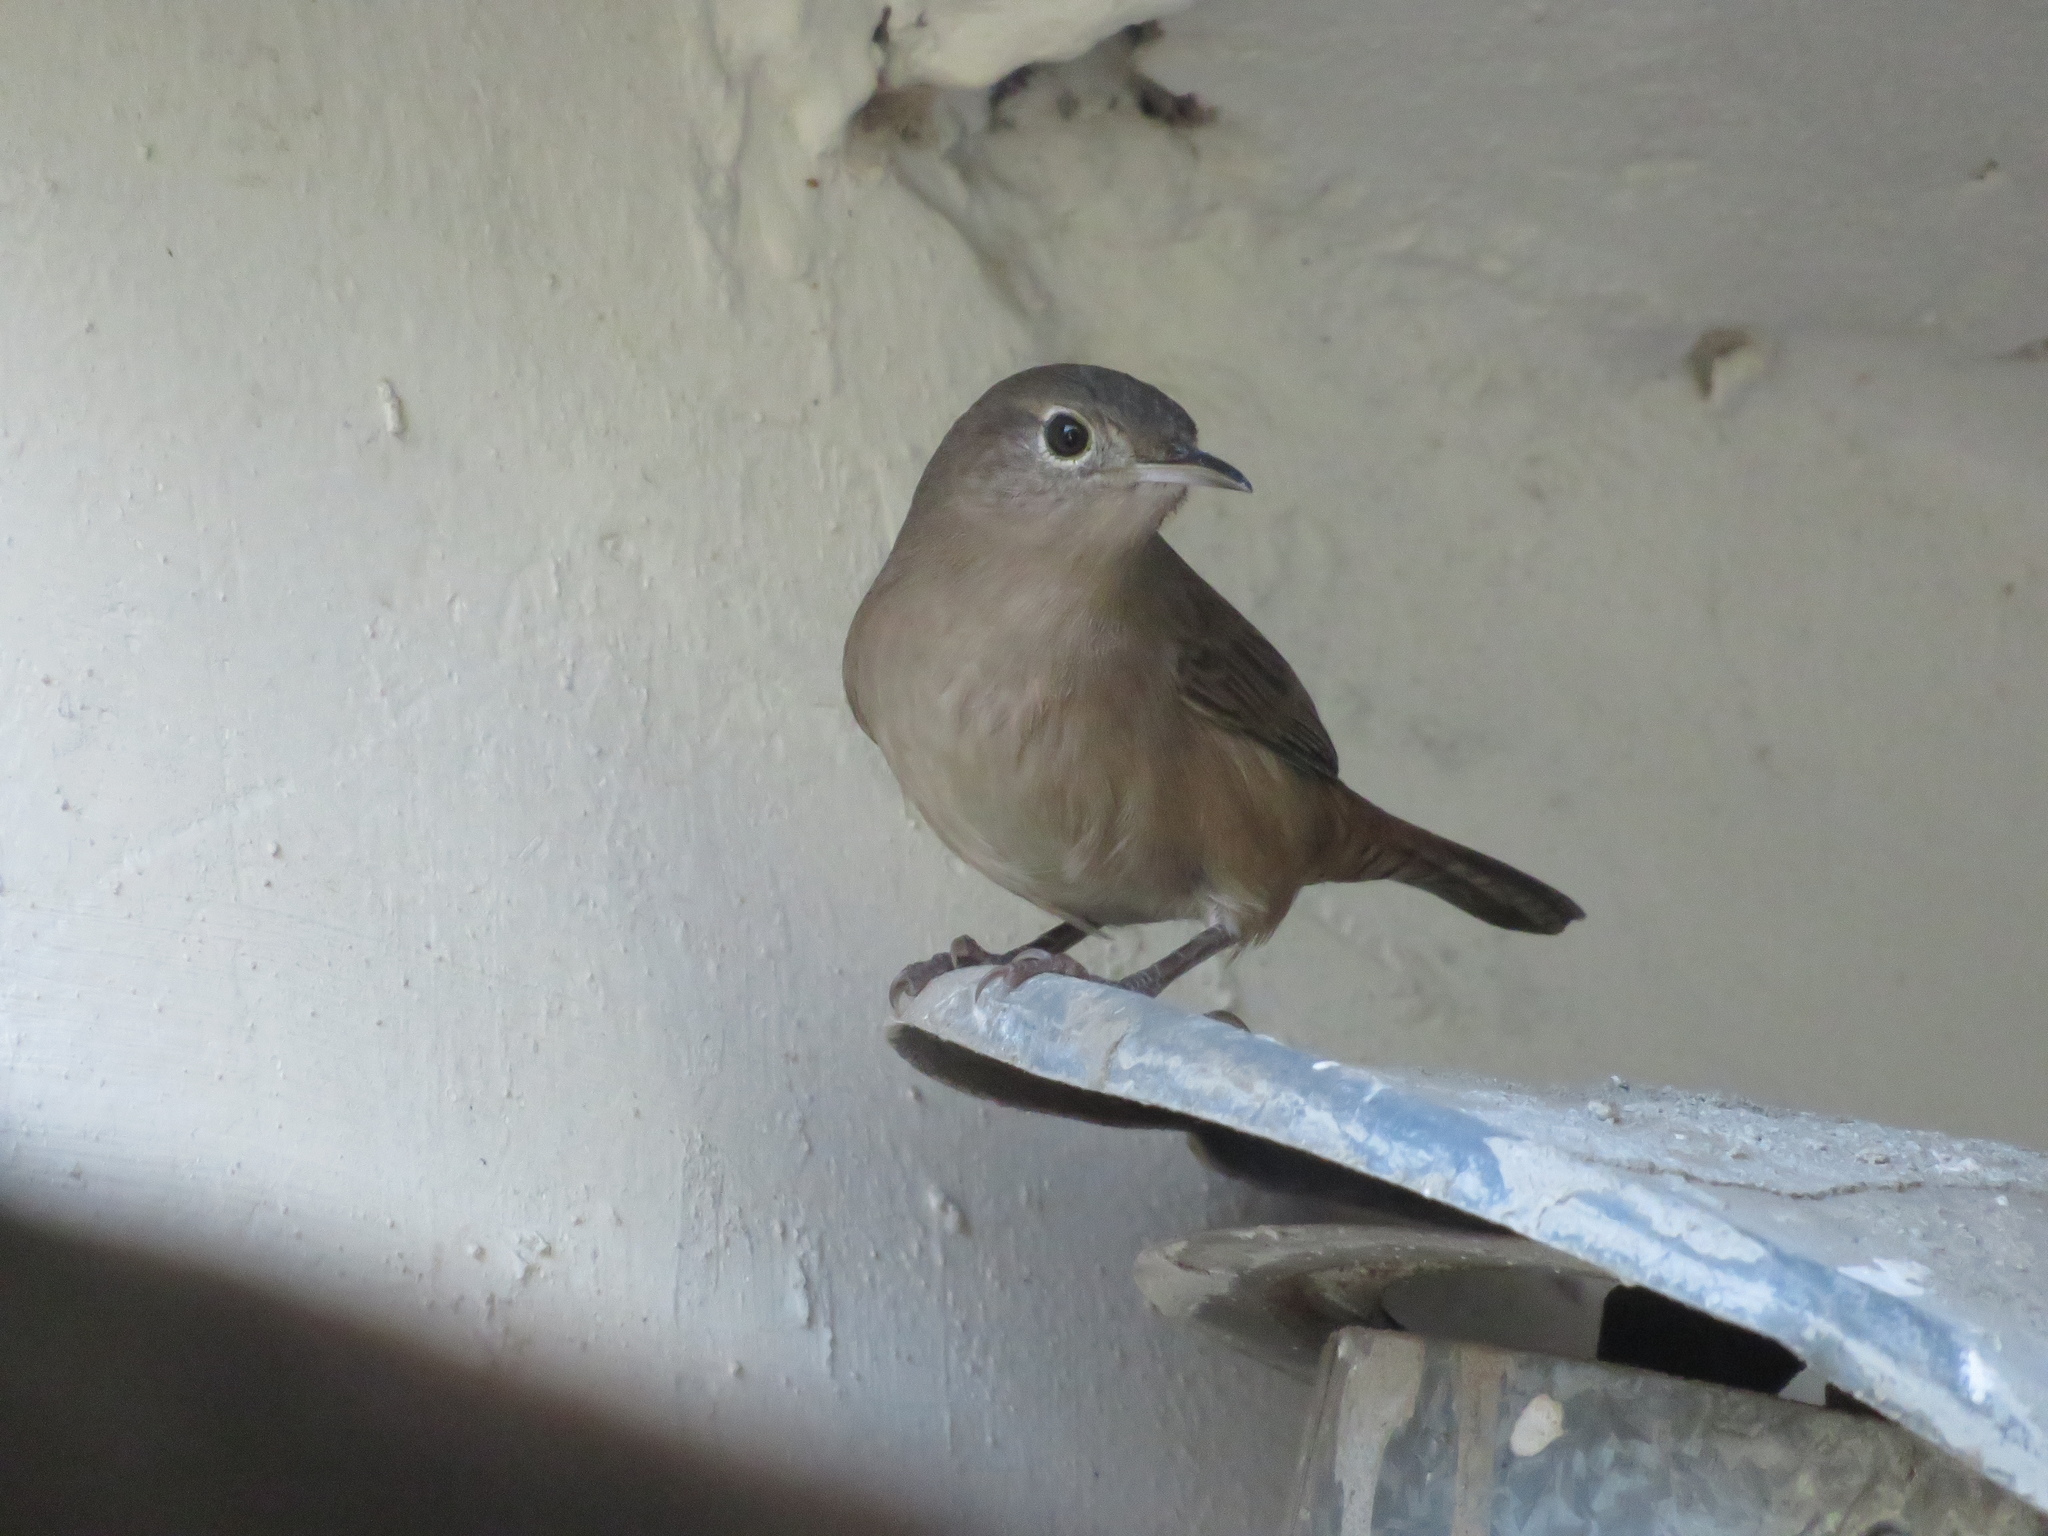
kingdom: Animalia
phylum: Chordata
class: Aves
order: Passeriformes
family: Troglodytidae
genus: Troglodytes
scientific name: Troglodytes aedon
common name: House wren
